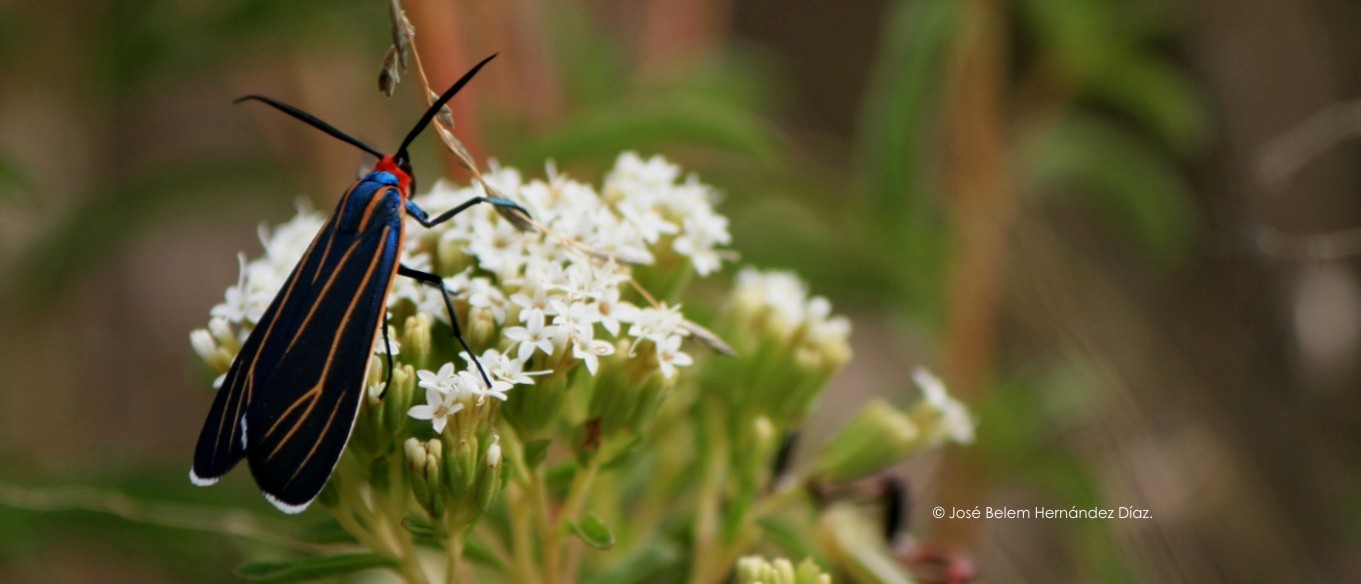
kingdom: Animalia
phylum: Arthropoda
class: Insecta
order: Lepidoptera
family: Erebidae
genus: Ctenucha
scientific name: Ctenucha venosa
